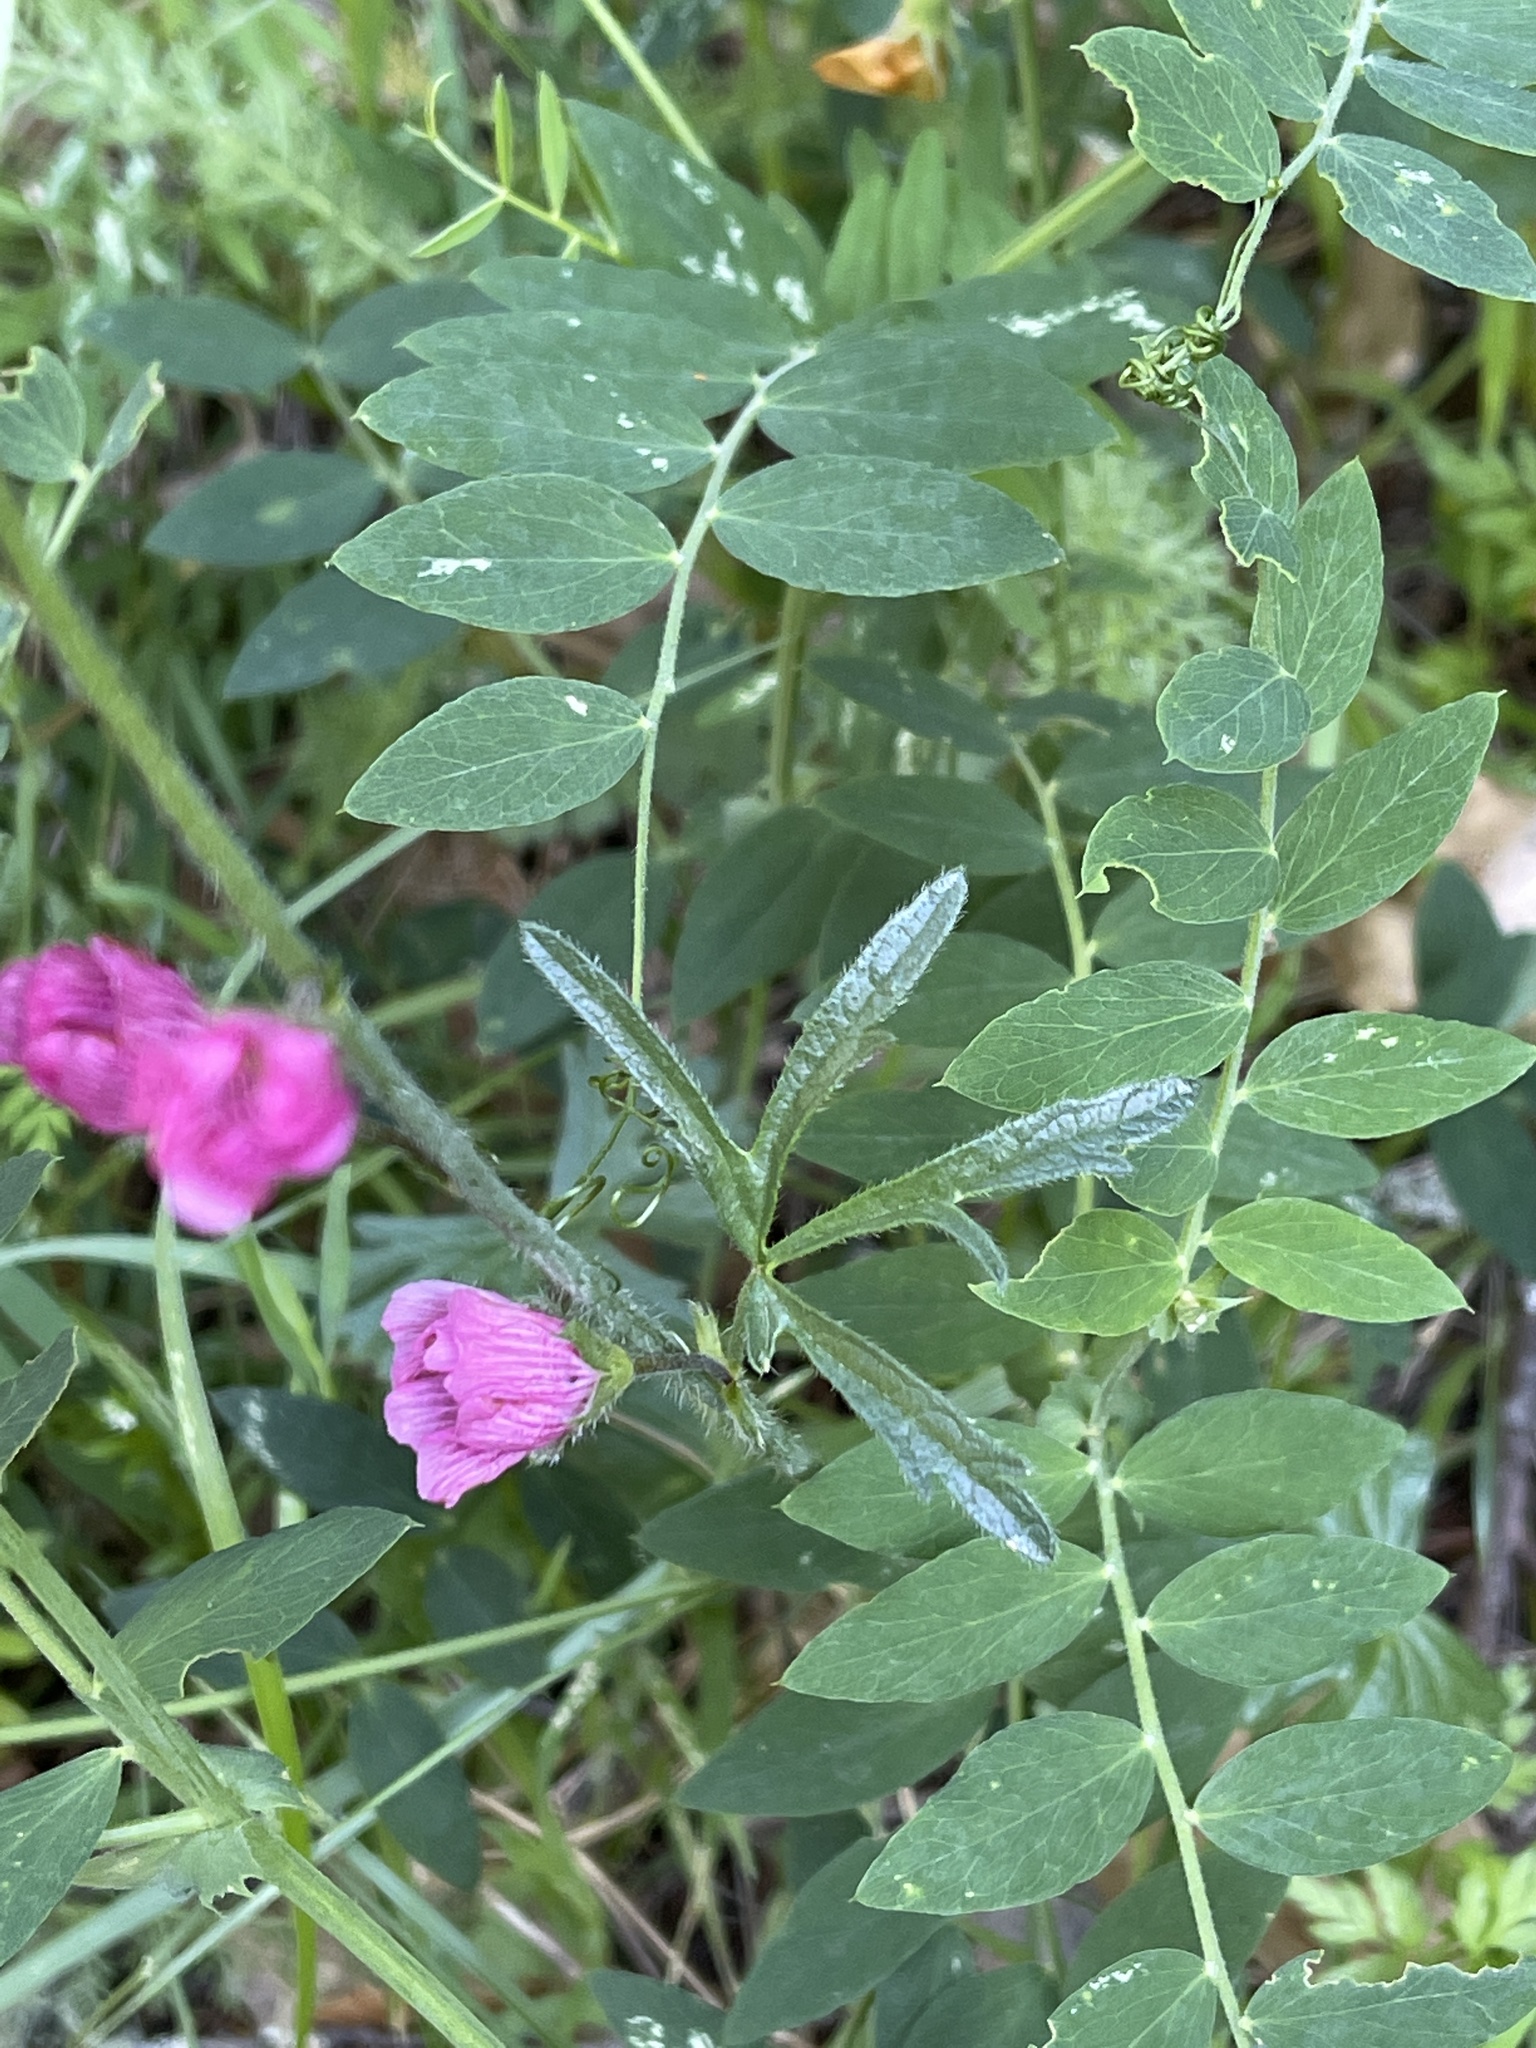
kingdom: Plantae
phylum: Tracheophyta
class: Magnoliopsida
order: Malvales
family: Malvaceae
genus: Sidalcea
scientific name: Sidalcea malviflora
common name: Greek mallow
